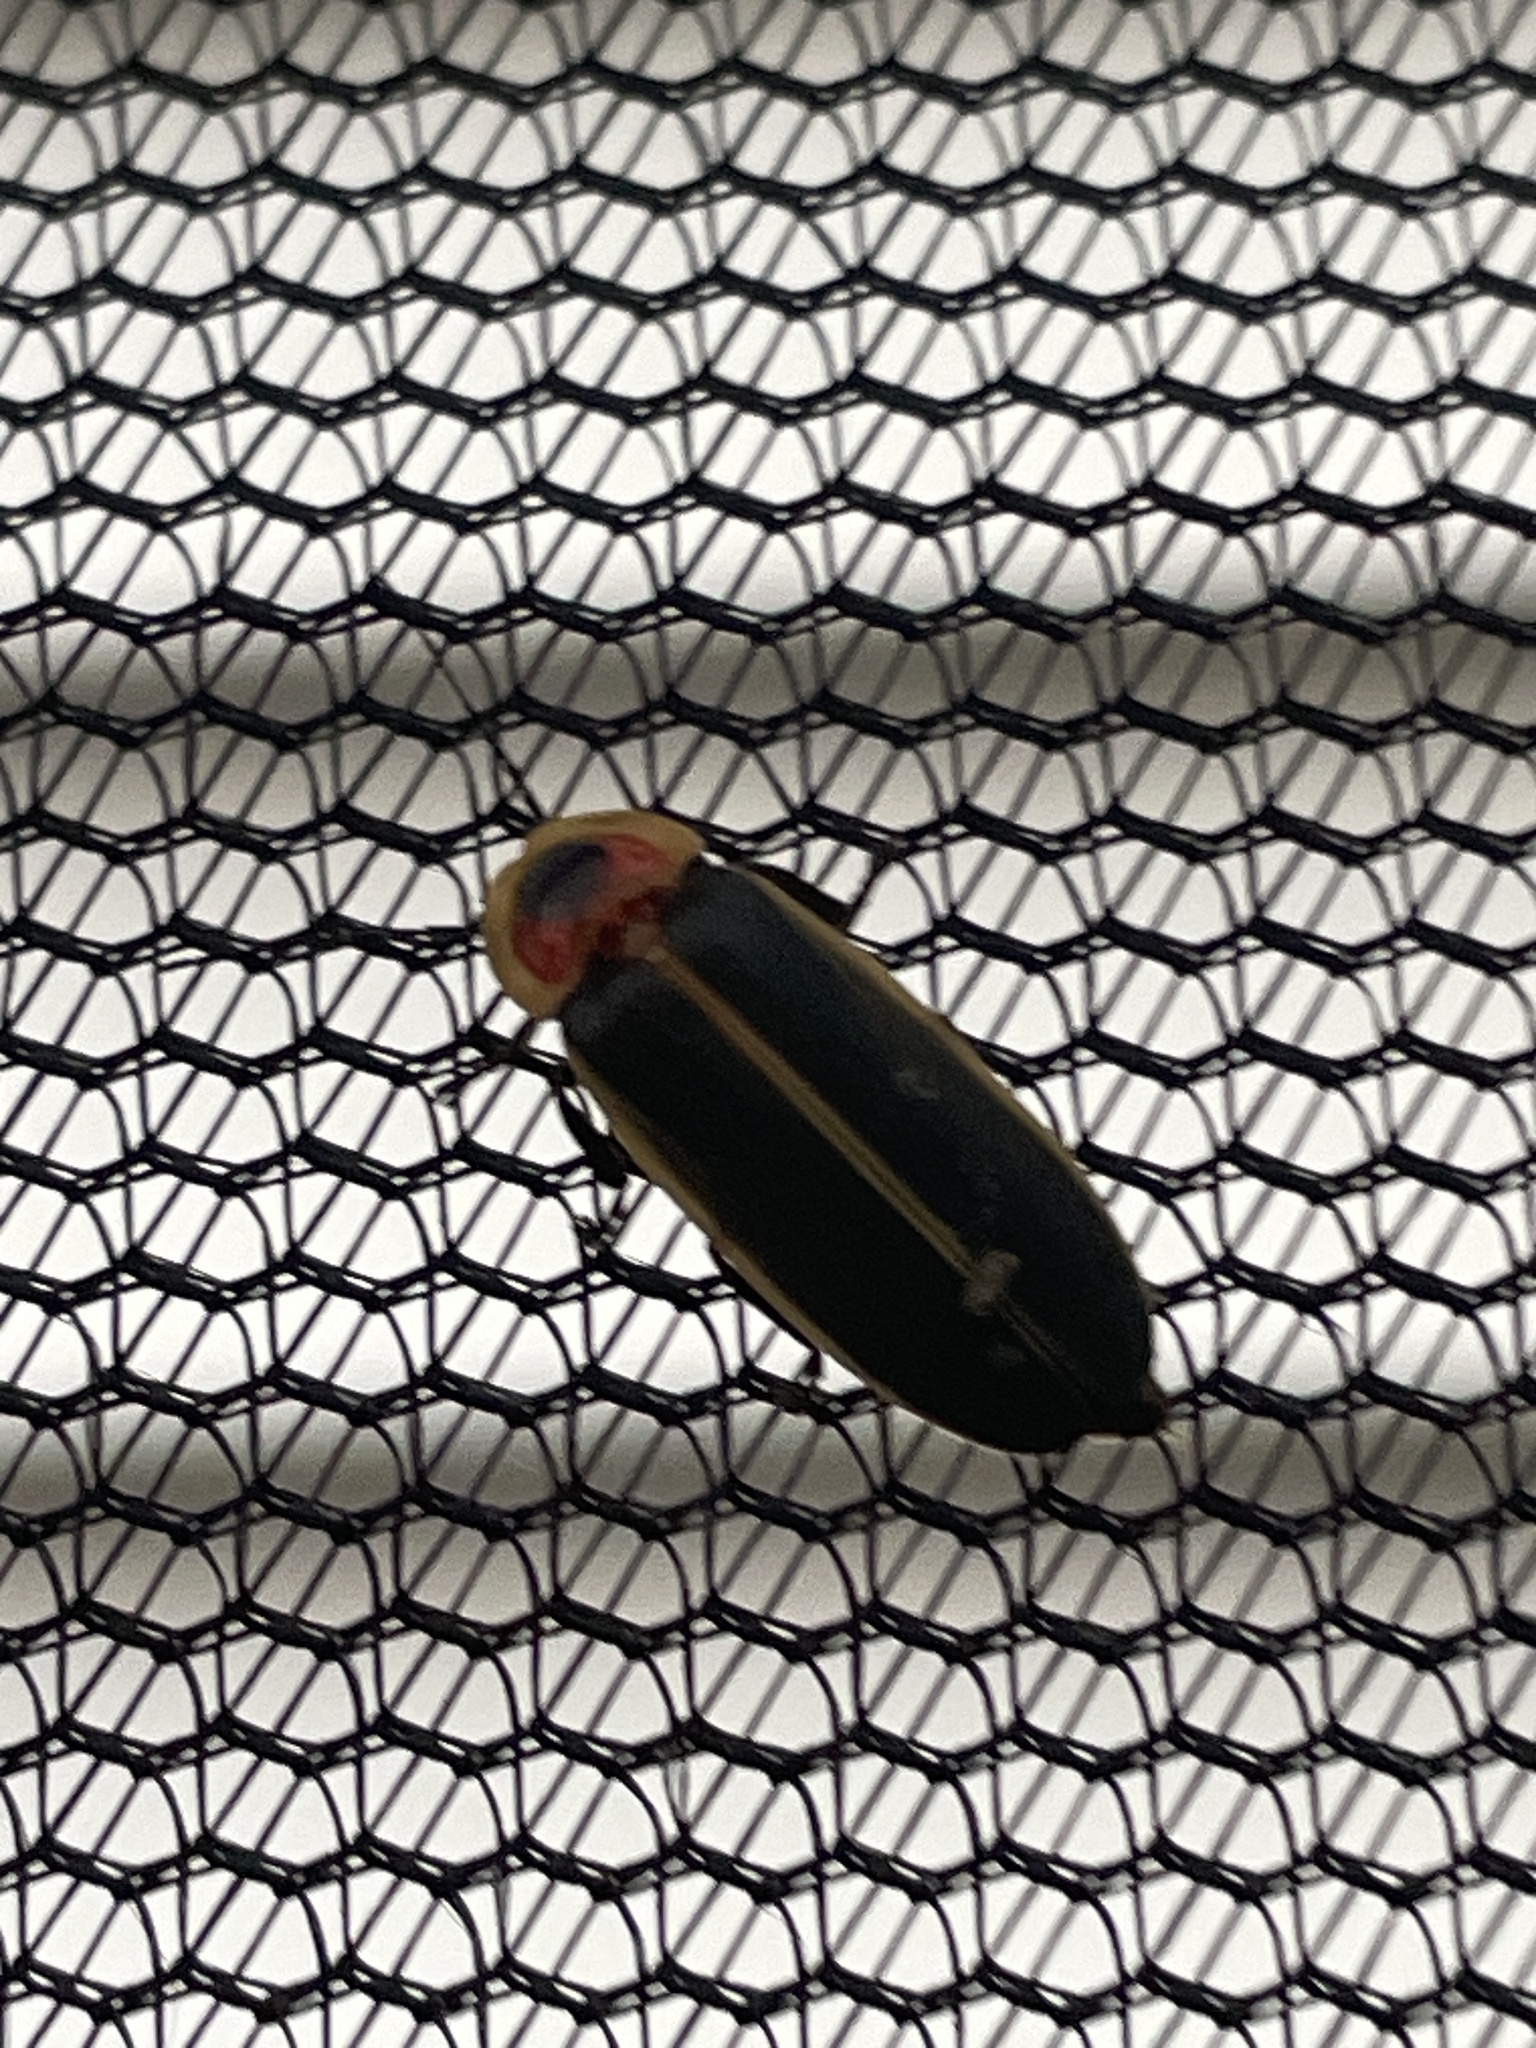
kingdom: Animalia
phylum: Arthropoda
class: Insecta
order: Coleoptera
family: Lampyridae
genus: Photinus
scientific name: Photinus pyralis
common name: Big dipper firefly
